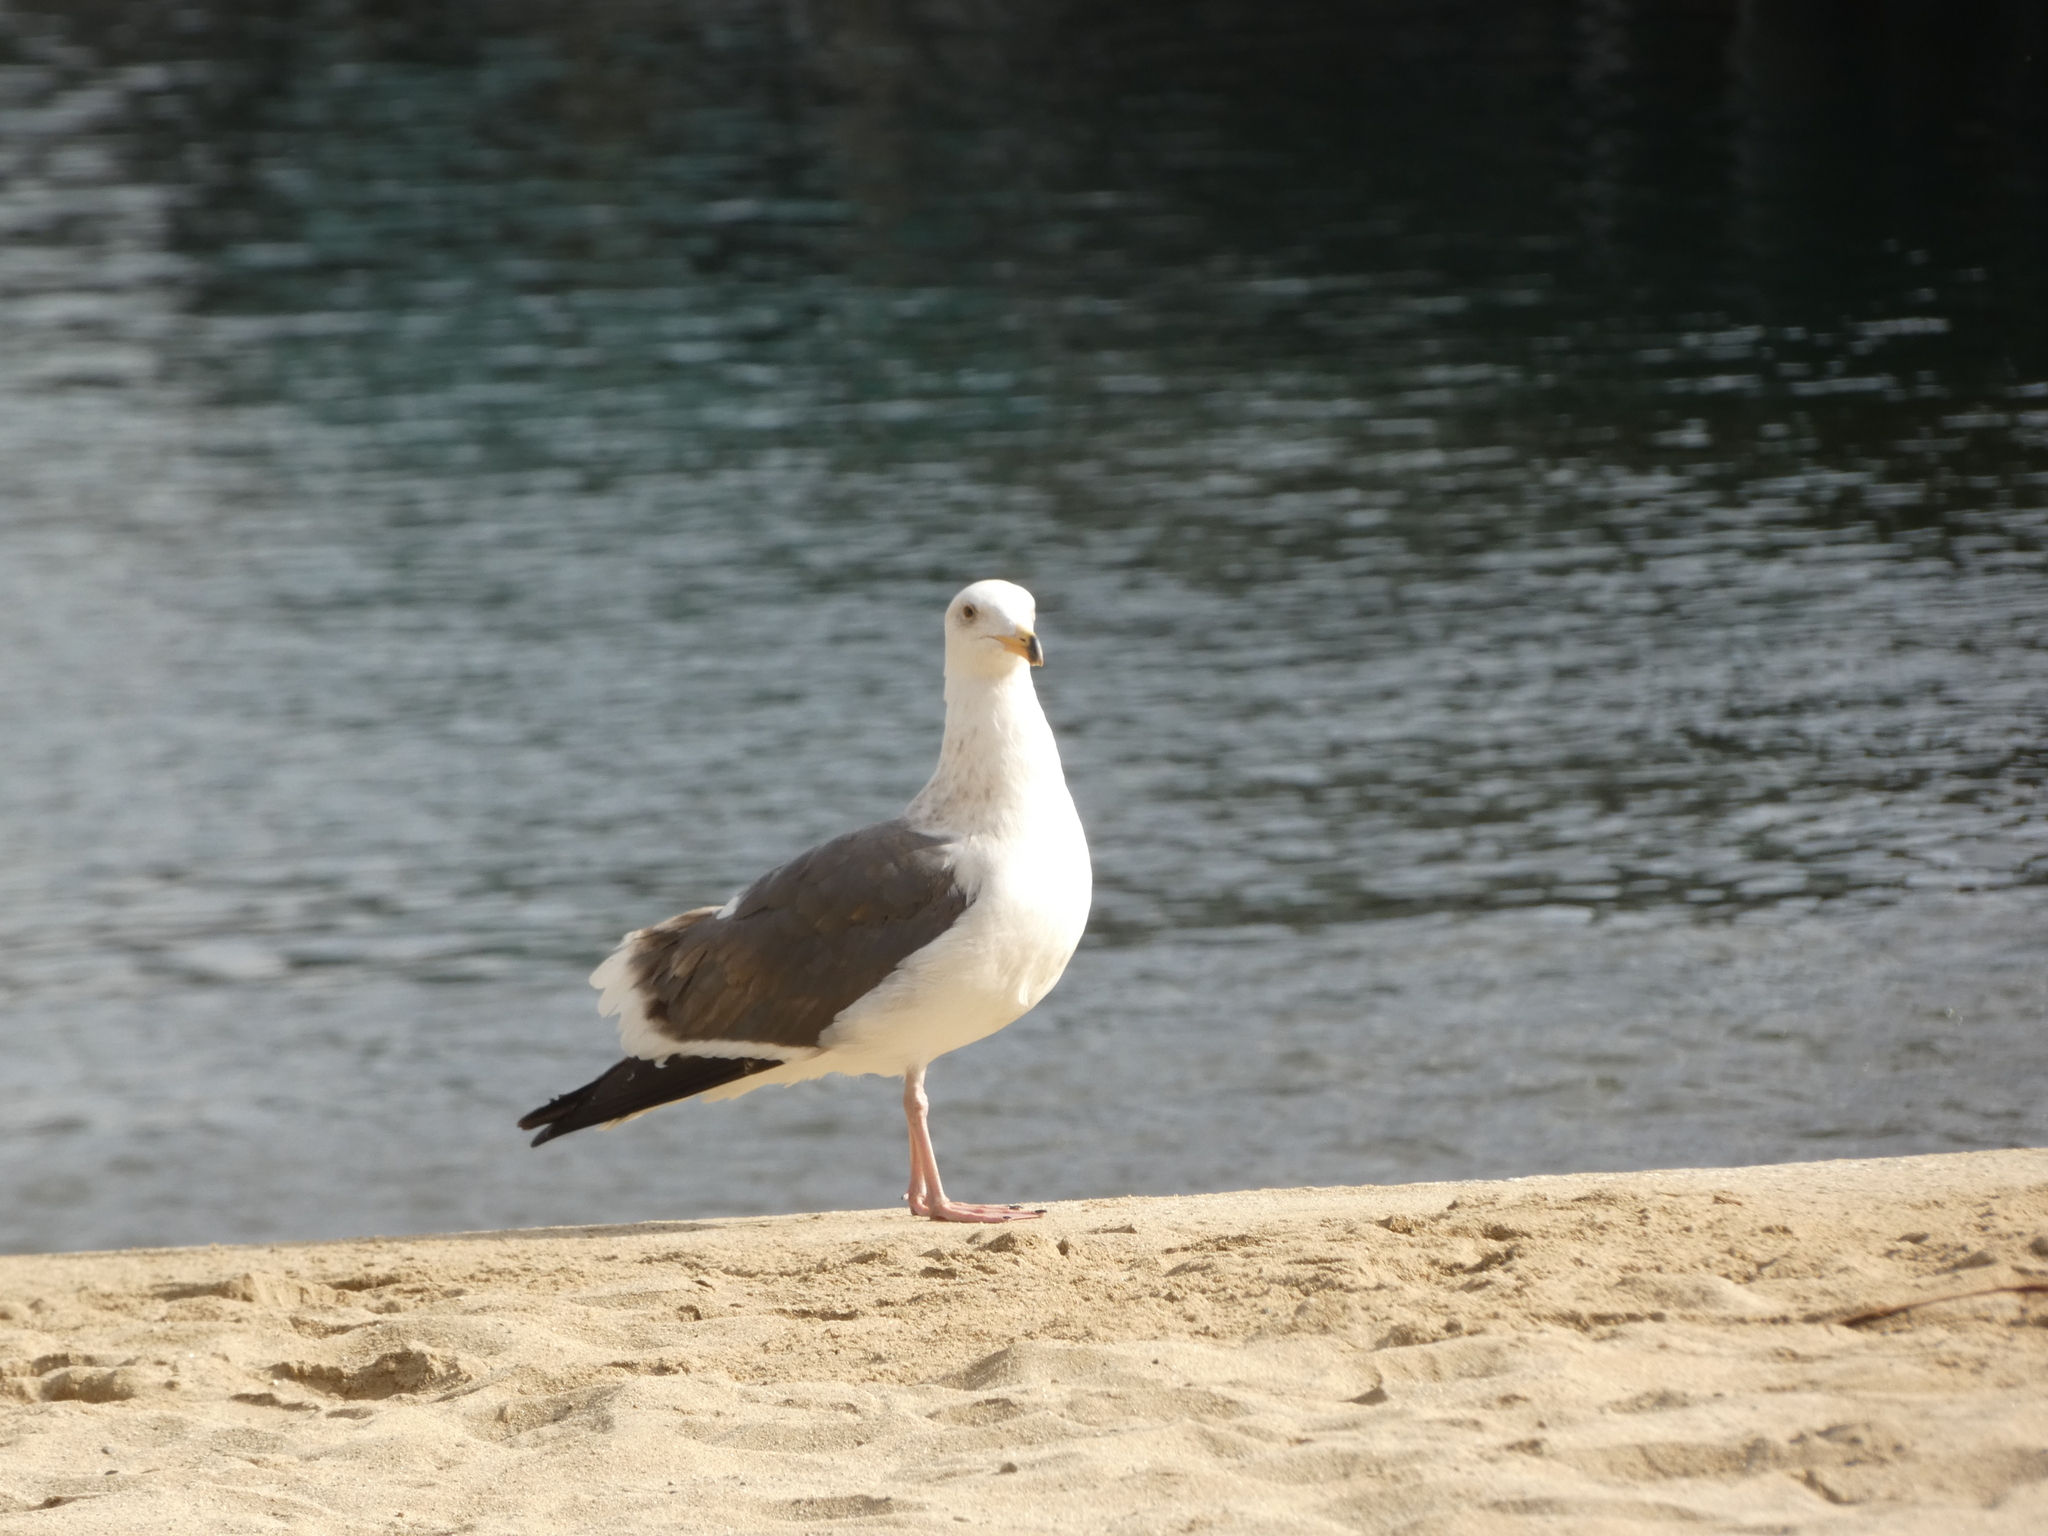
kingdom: Animalia
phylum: Chordata
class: Aves
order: Charadriiformes
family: Laridae
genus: Larus
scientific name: Larus occidentalis
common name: Western gull
